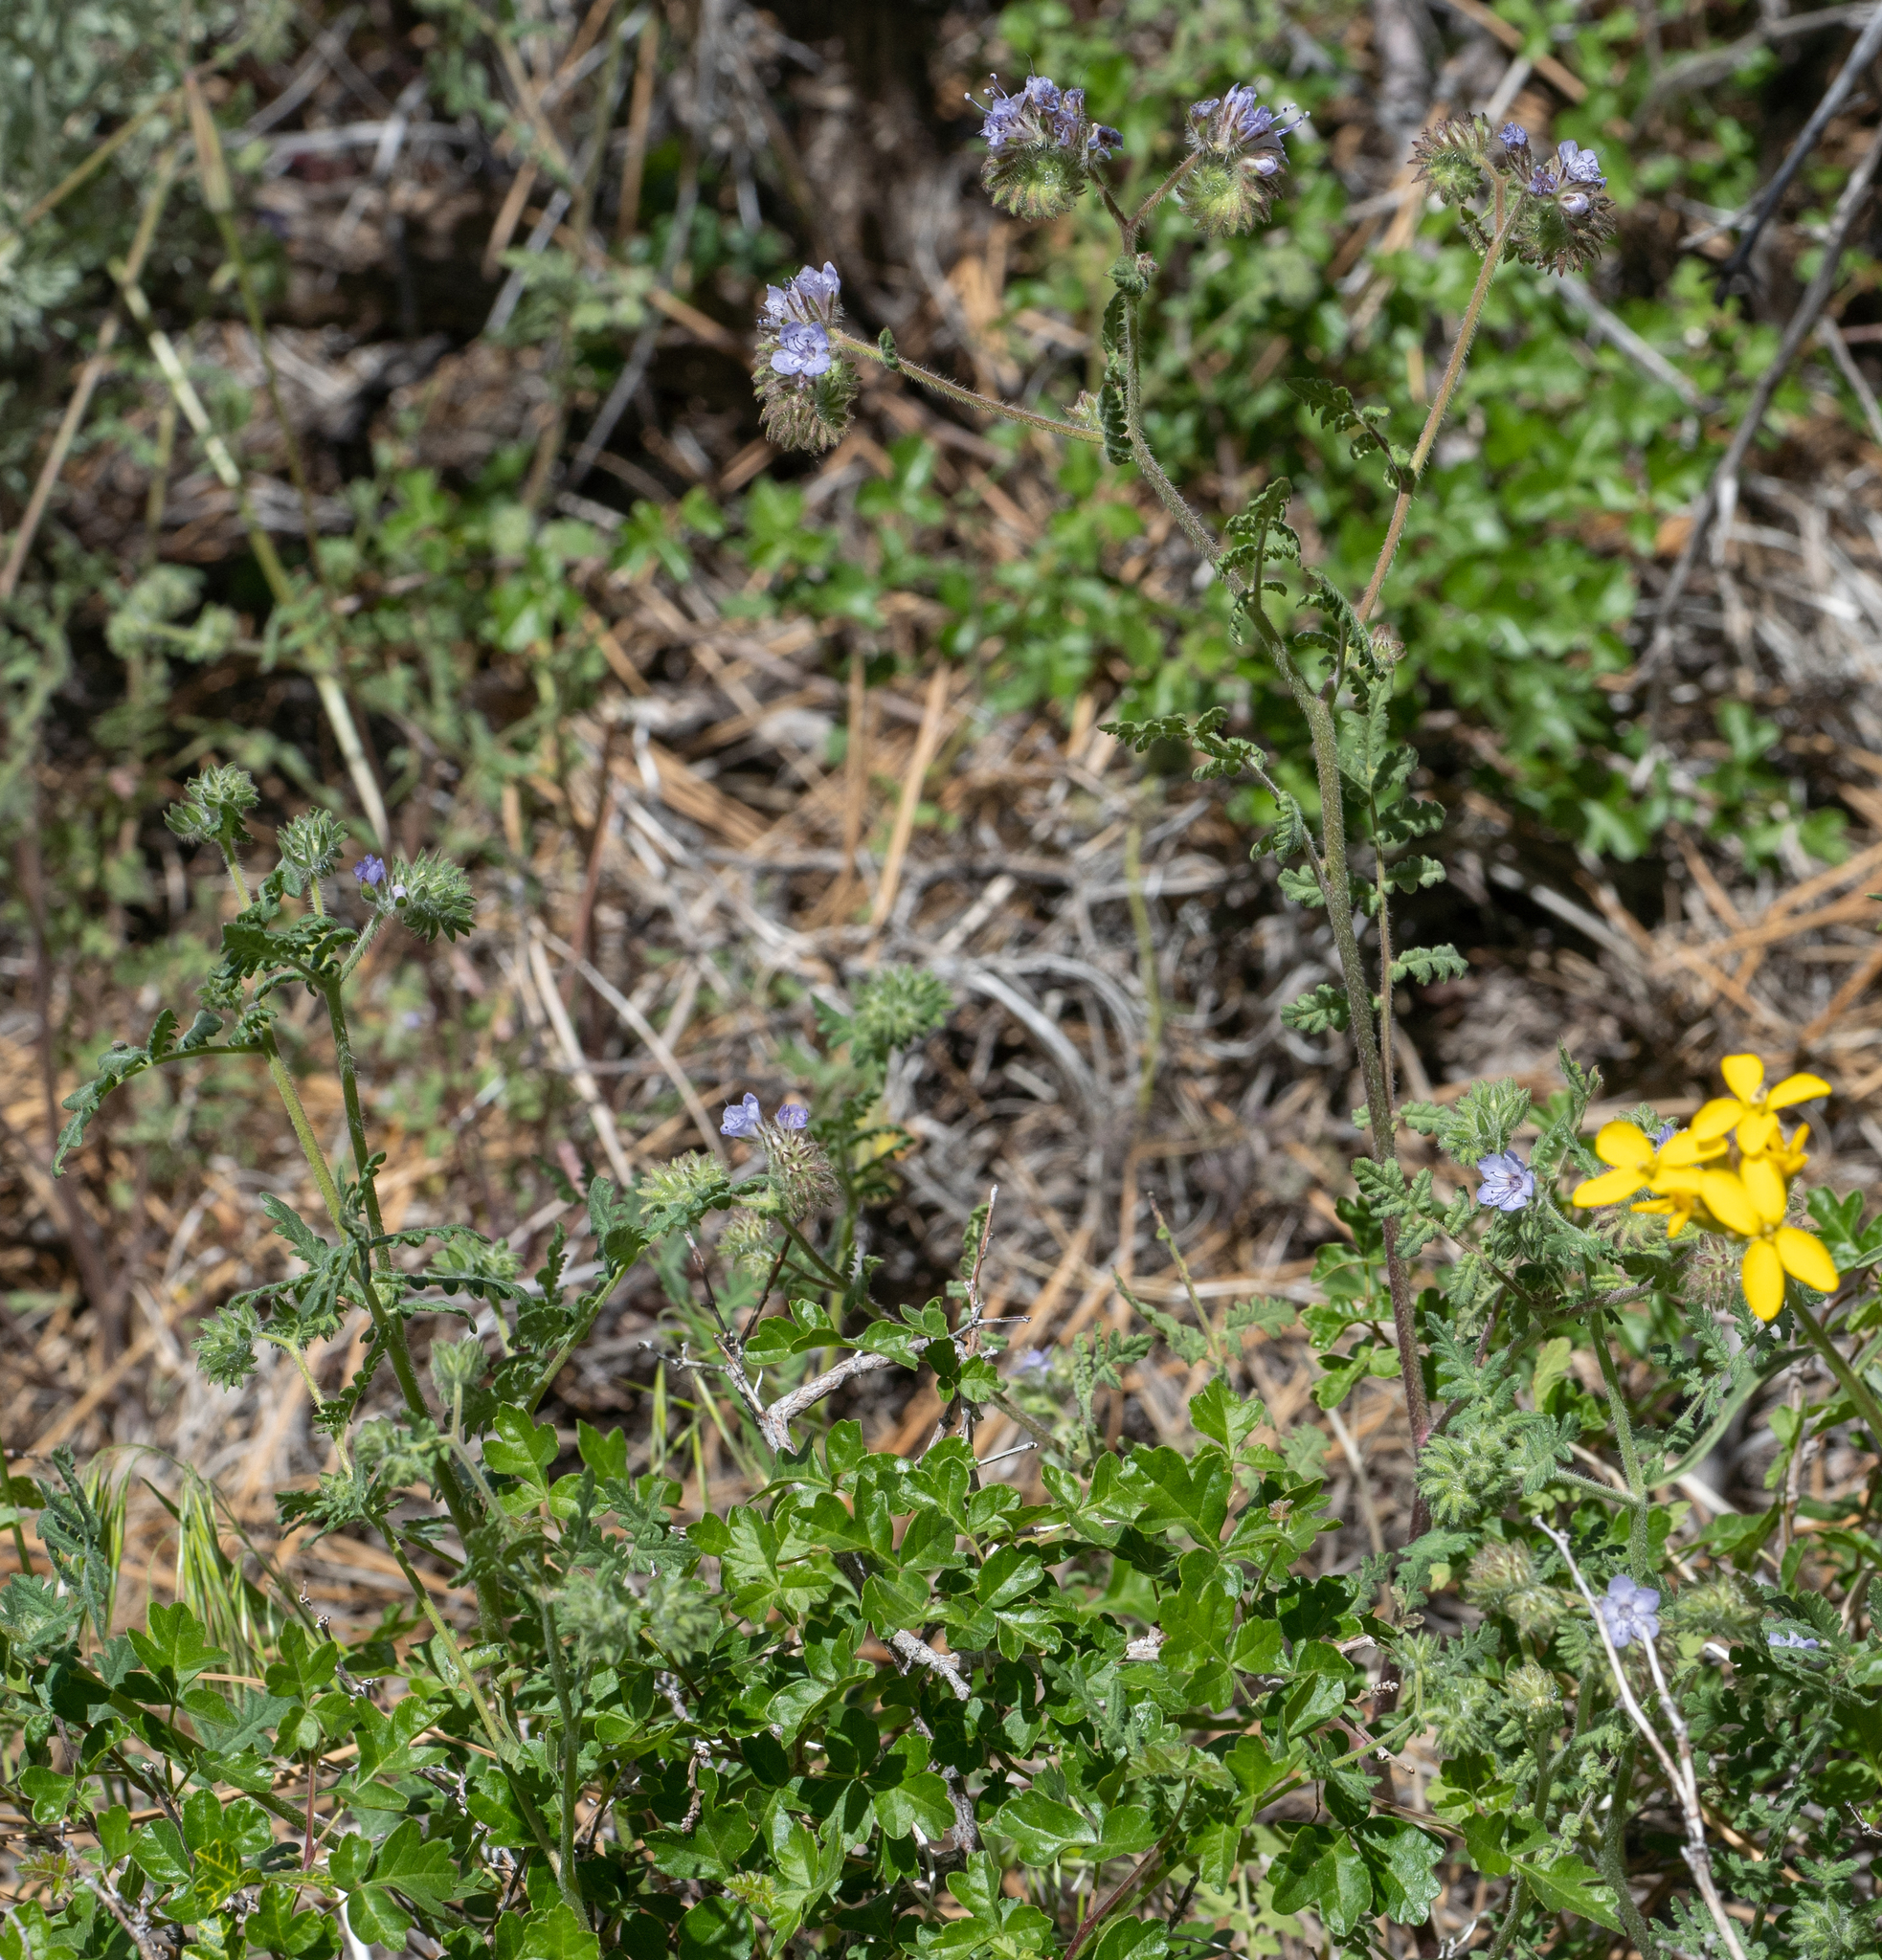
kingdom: Plantae
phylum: Tracheophyta
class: Magnoliopsida
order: Boraginales
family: Hydrophyllaceae
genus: Phacelia
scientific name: Phacelia distans
